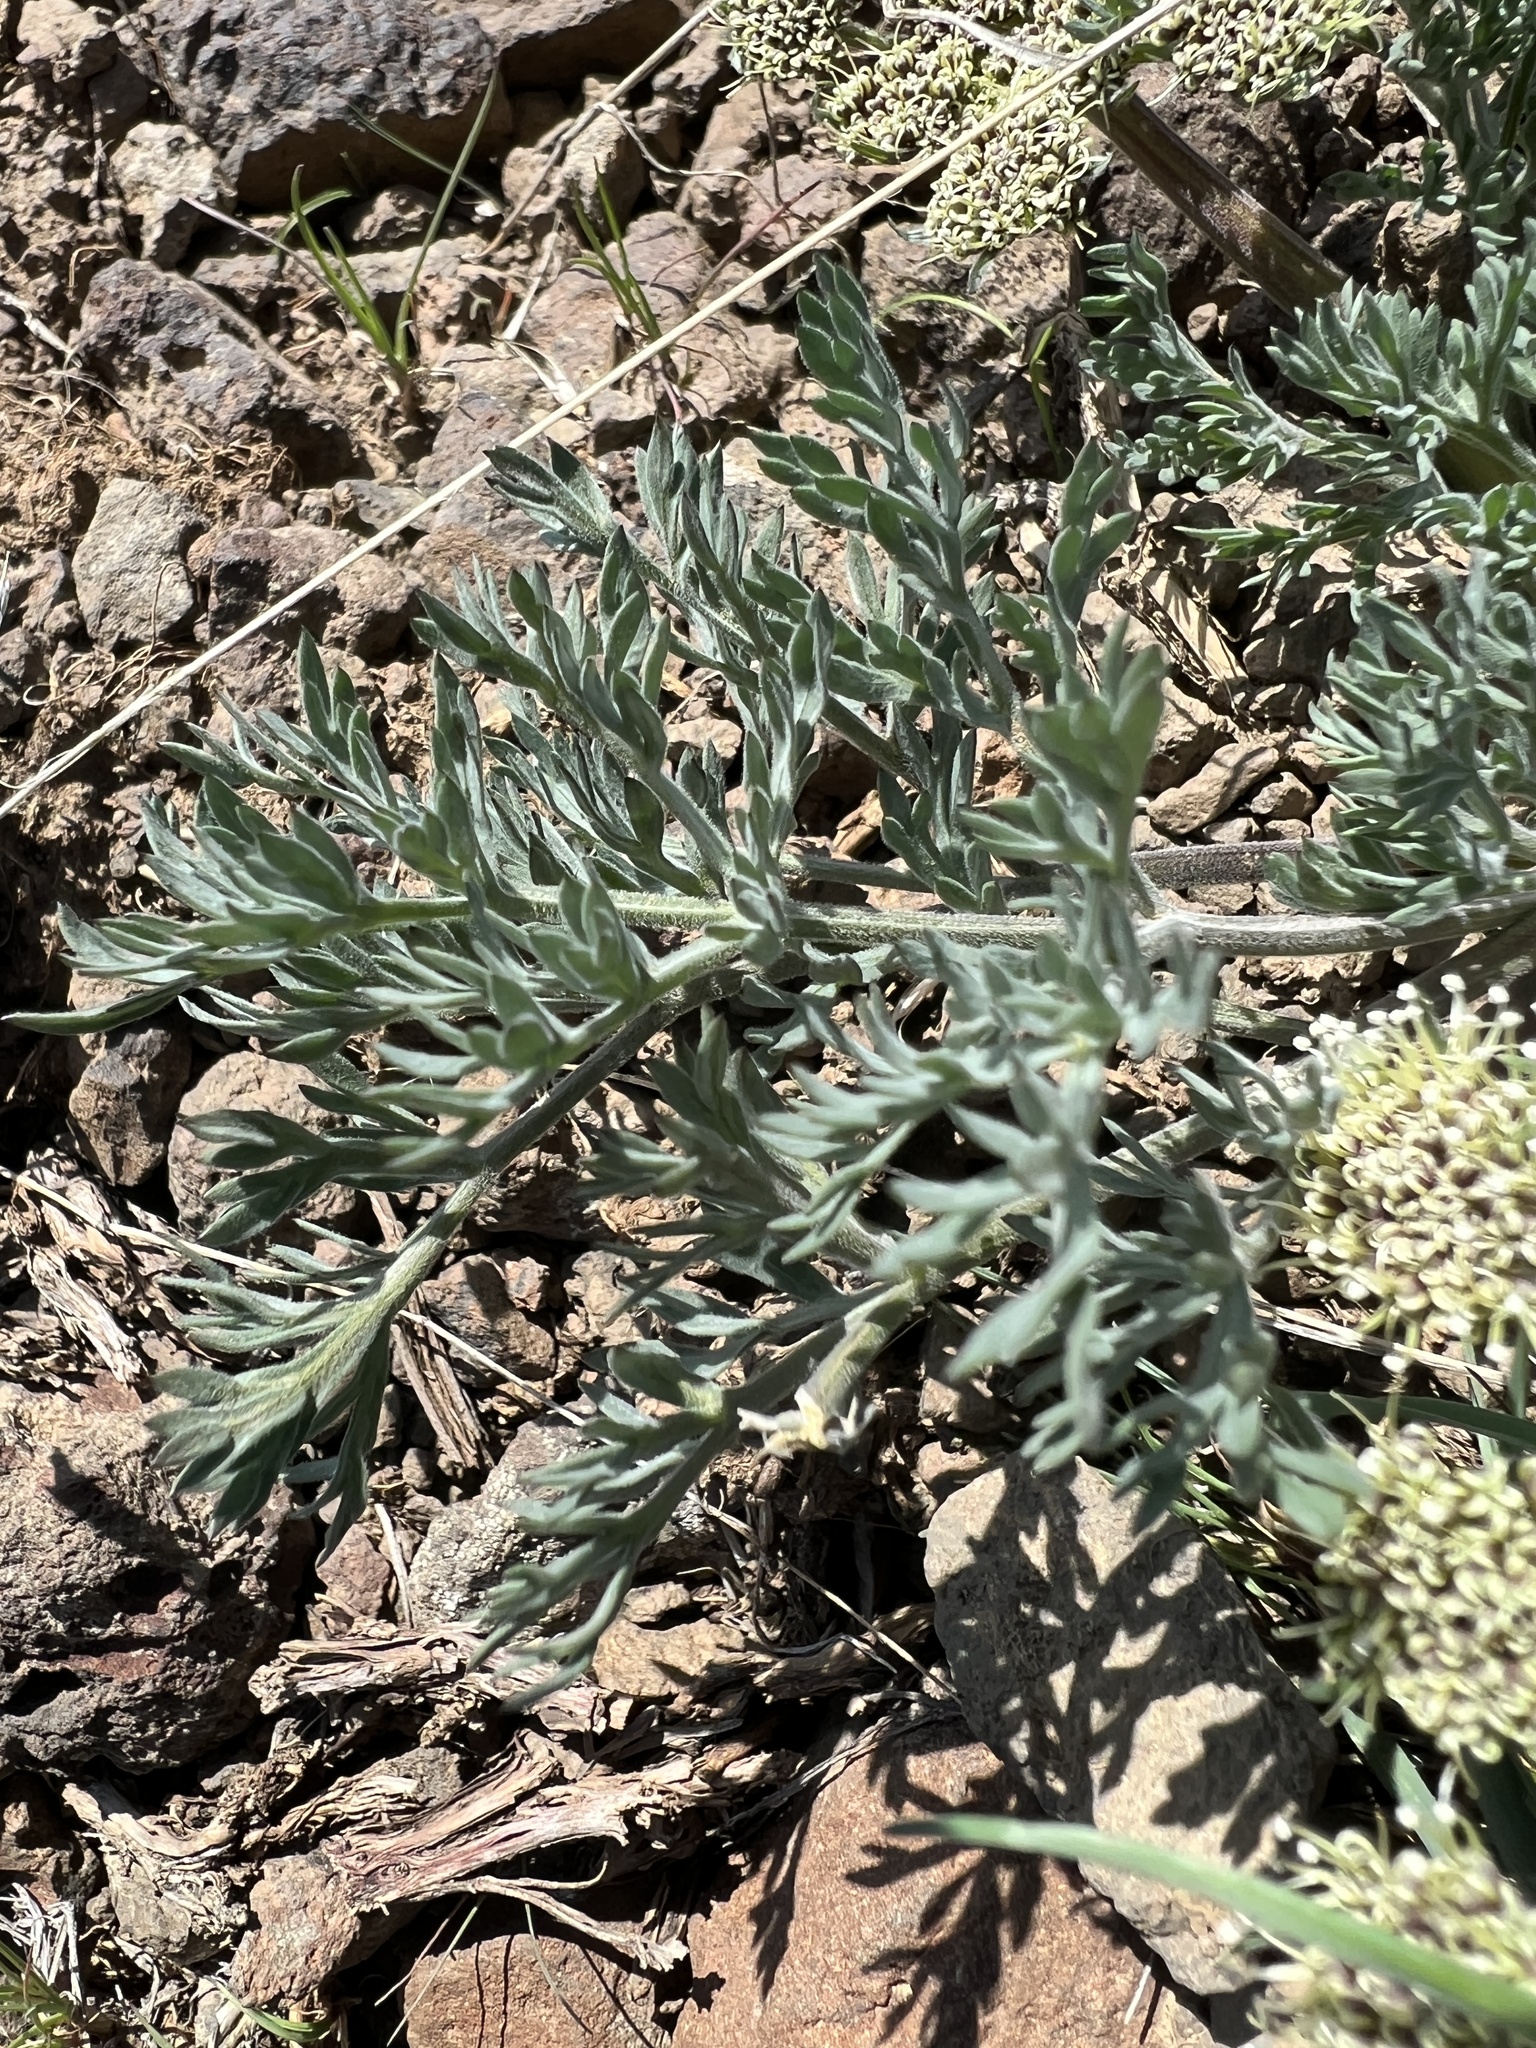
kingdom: Plantae
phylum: Tracheophyta
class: Magnoliopsida
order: Apiales
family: Apiaceae
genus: Lomatium
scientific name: Lomatium macrocarpum
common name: Big-seed biscuitroot
